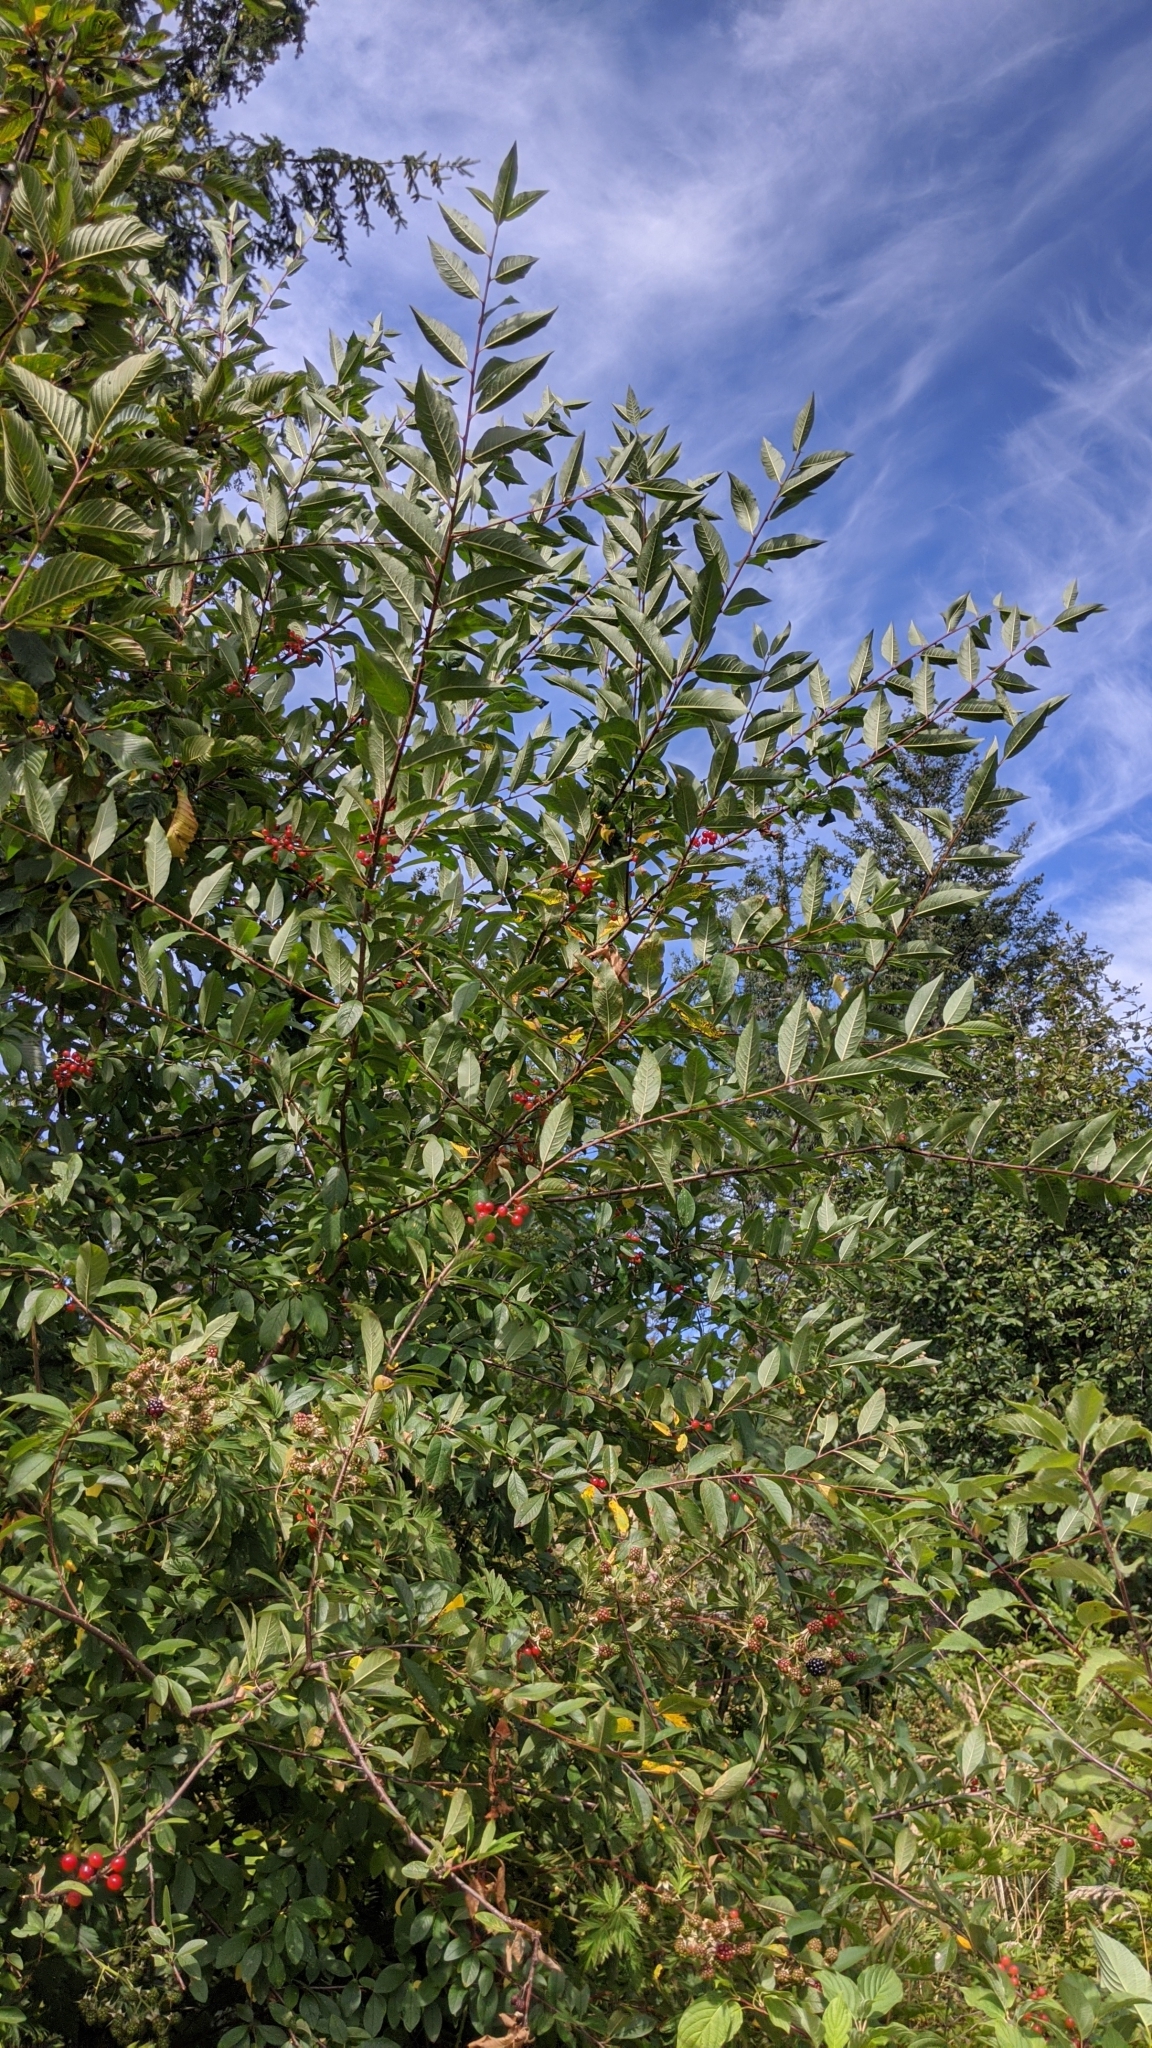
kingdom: Plantae
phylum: Tracheophyta
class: Magnoliopsida
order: Rosales
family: Rosaceae
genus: Prunus
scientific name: Prunus emarginata
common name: Bitter cherry
